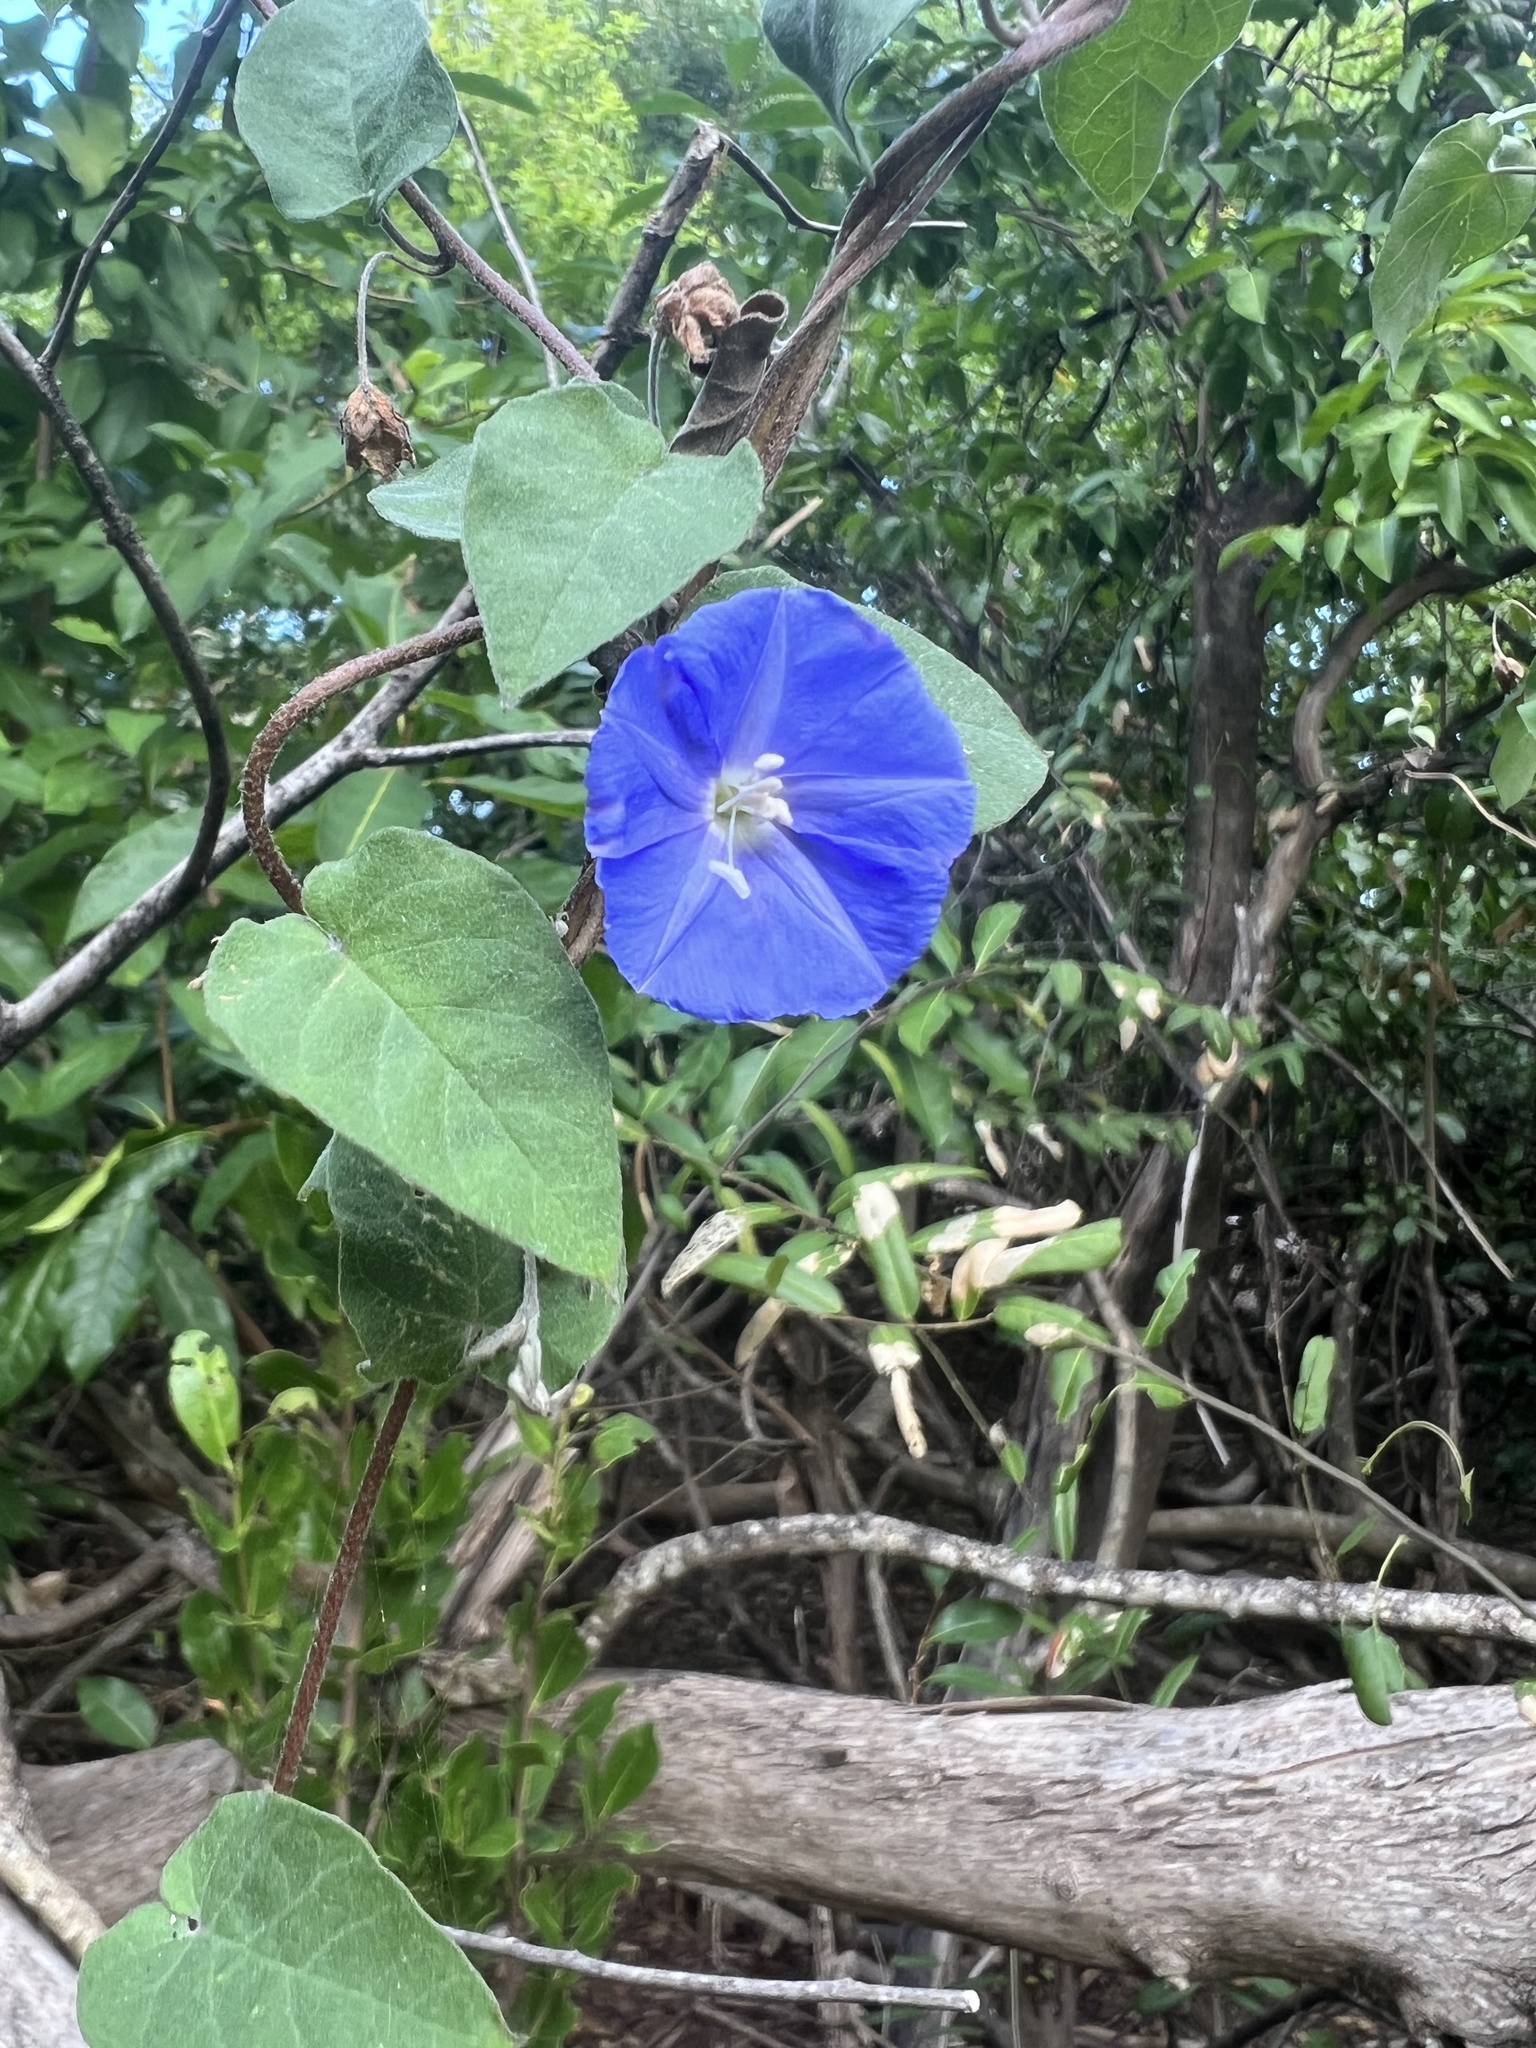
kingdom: Plantae
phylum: Tracheophyta
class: Magnoliopsida
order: Solanales
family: Convolvulaceae
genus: Jacquemontia
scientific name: Jacquemontia pentanthos
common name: Skyblue clustervine
